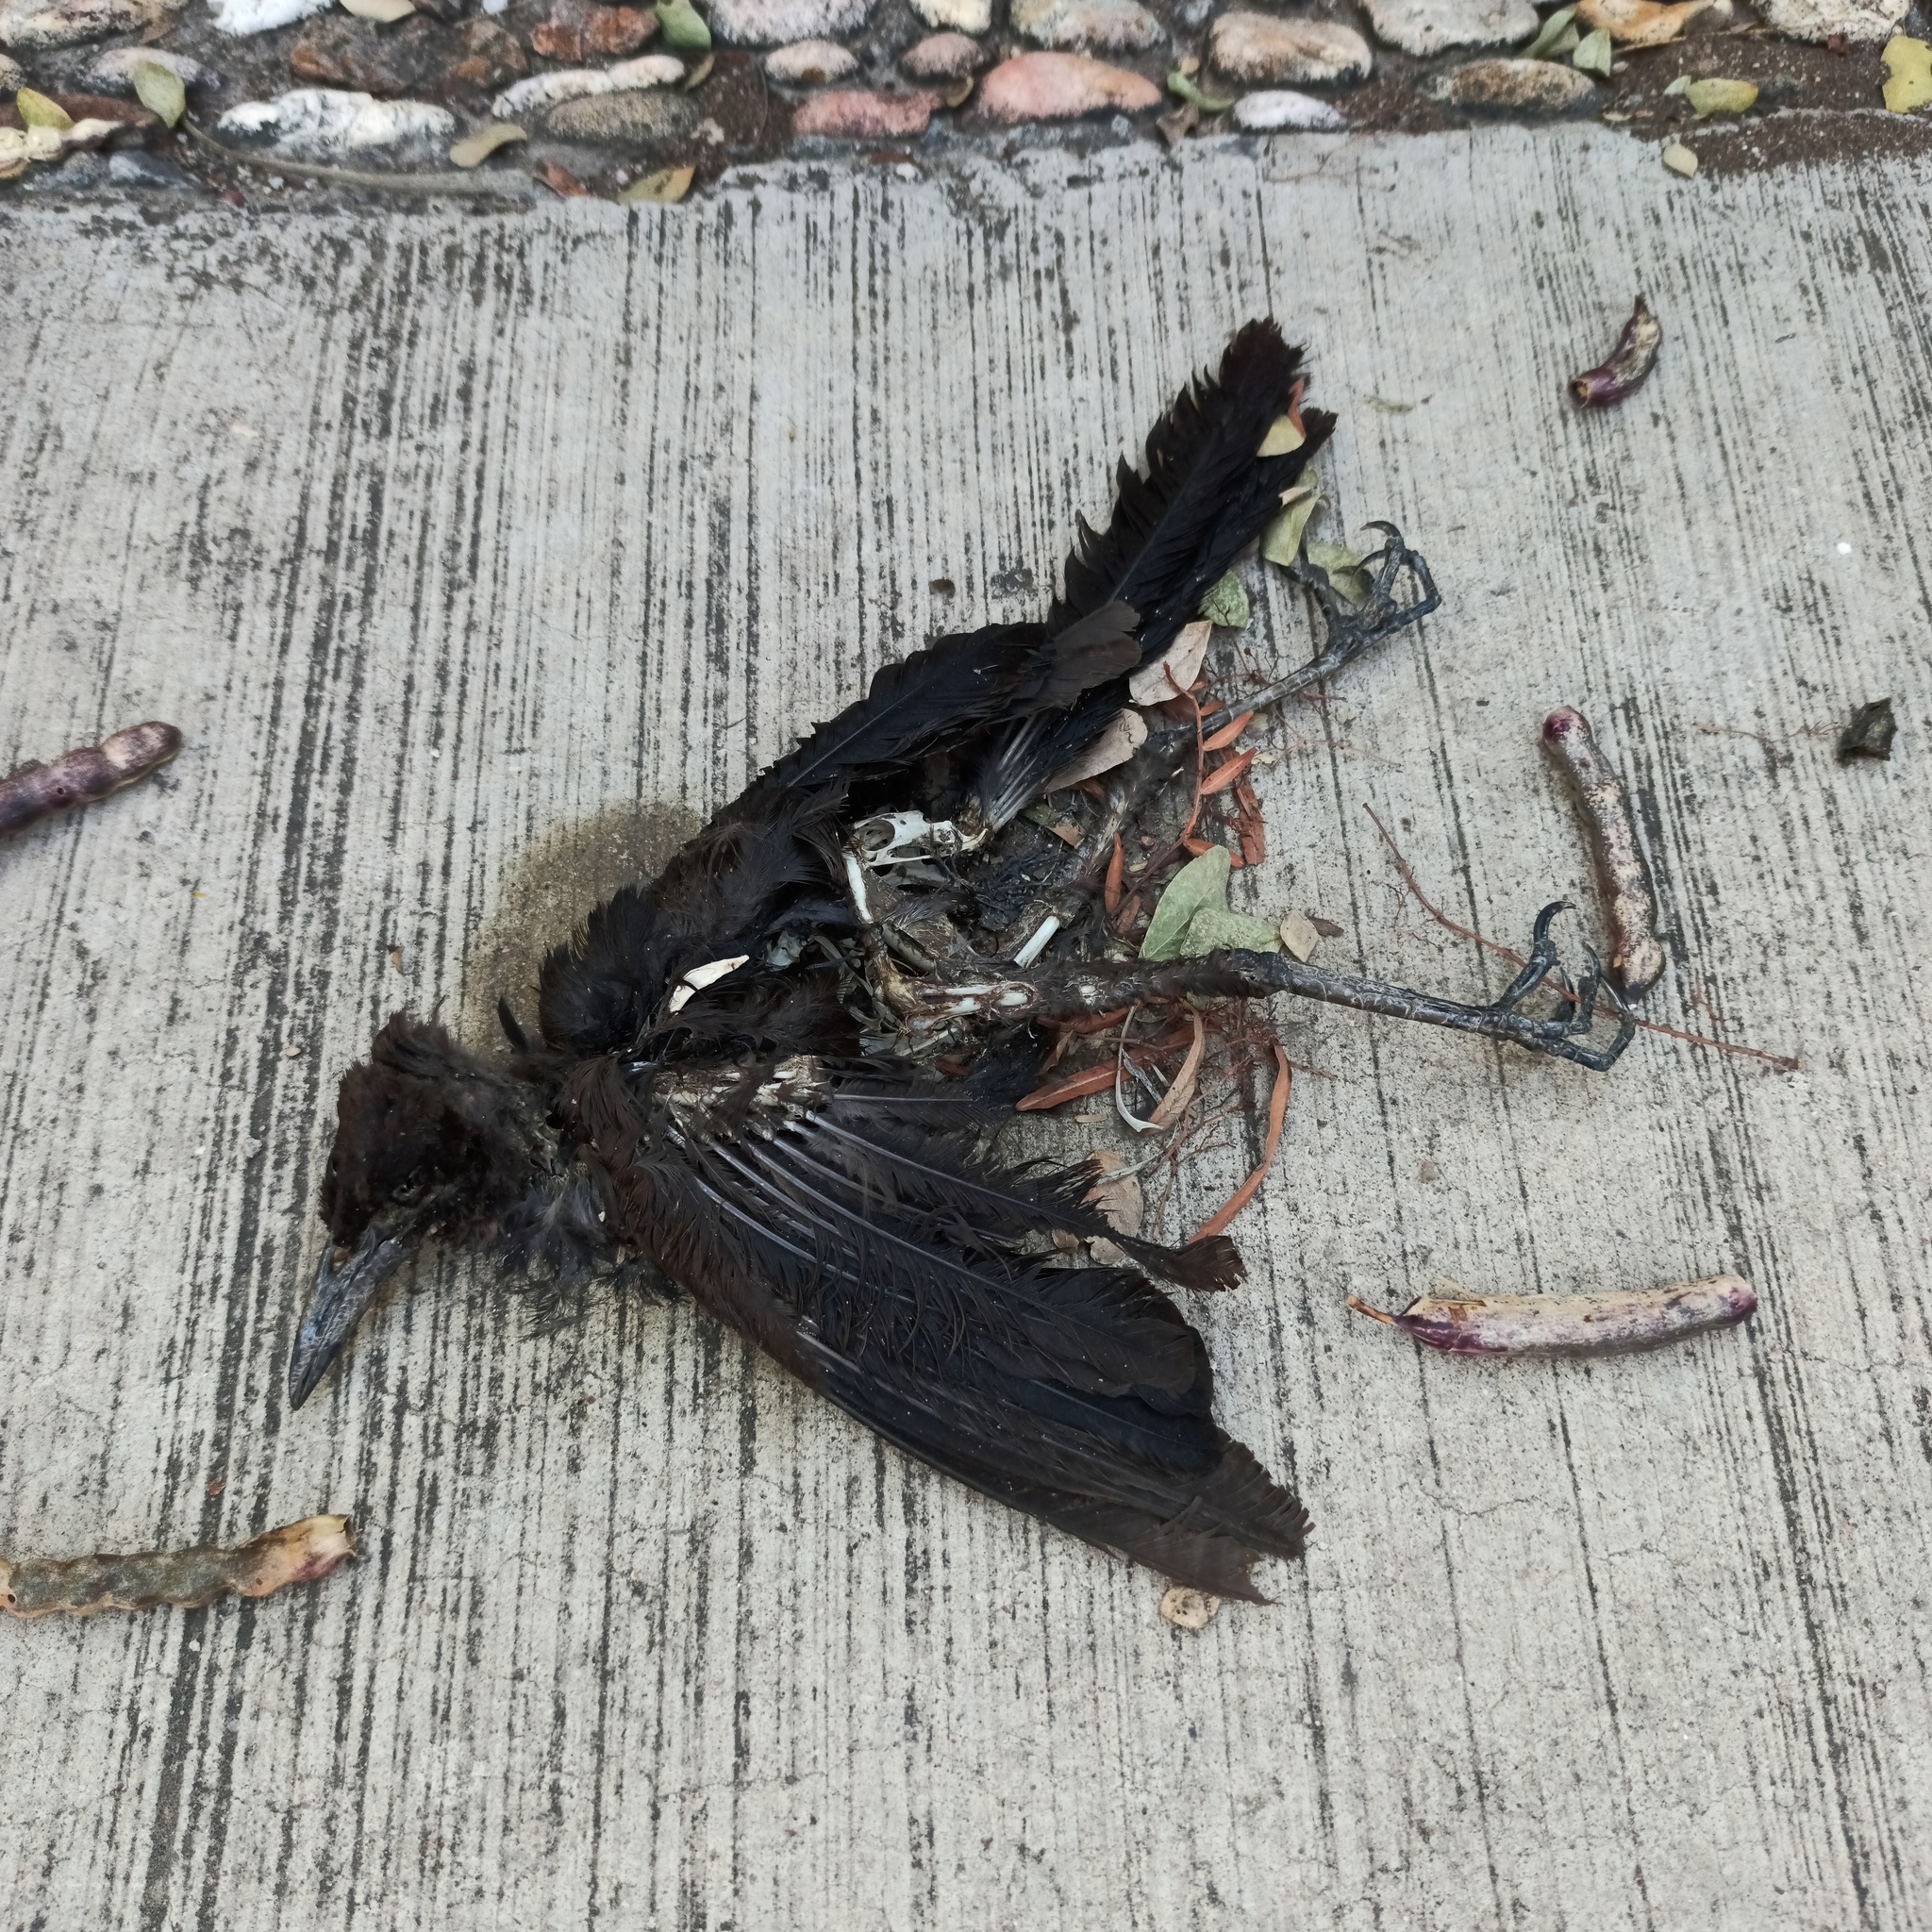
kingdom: Animalia
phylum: Chordata
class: Aves
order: Passeriformes
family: Icteridae
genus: Quiscalus
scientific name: Quiscalus mexicanus
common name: Great-tailed grackle
